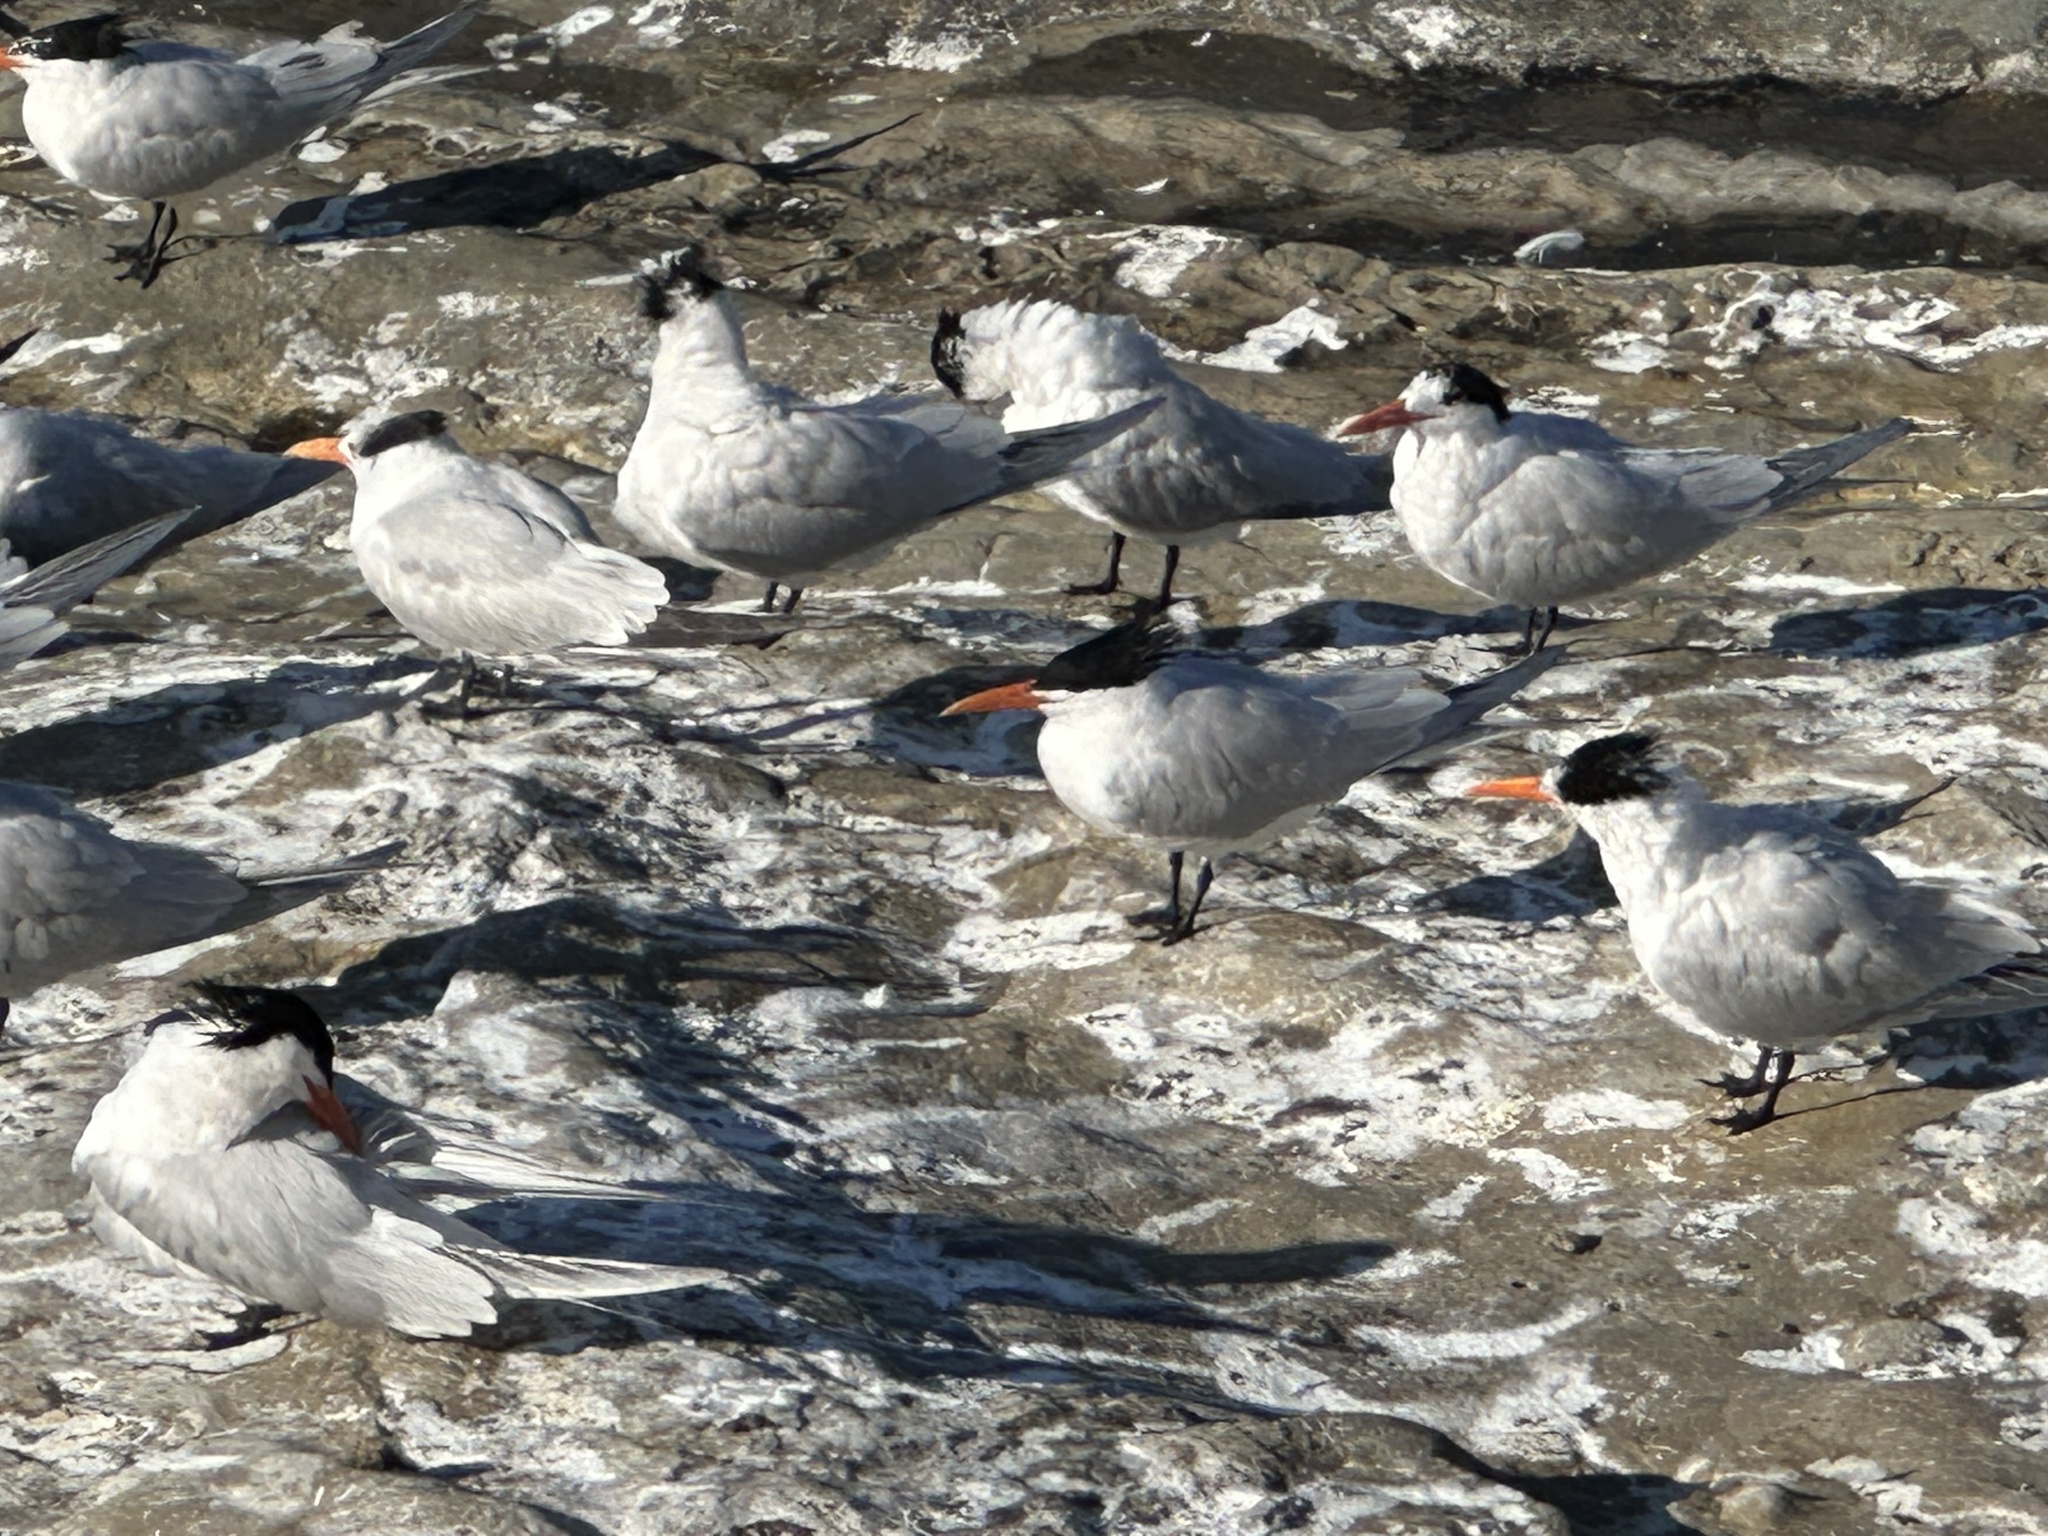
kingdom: Animalia
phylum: Chordata
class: Aves
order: Charadriiformes
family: Laridae
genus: Thalasseus
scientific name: Thalasseus maximus
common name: Royal tern
